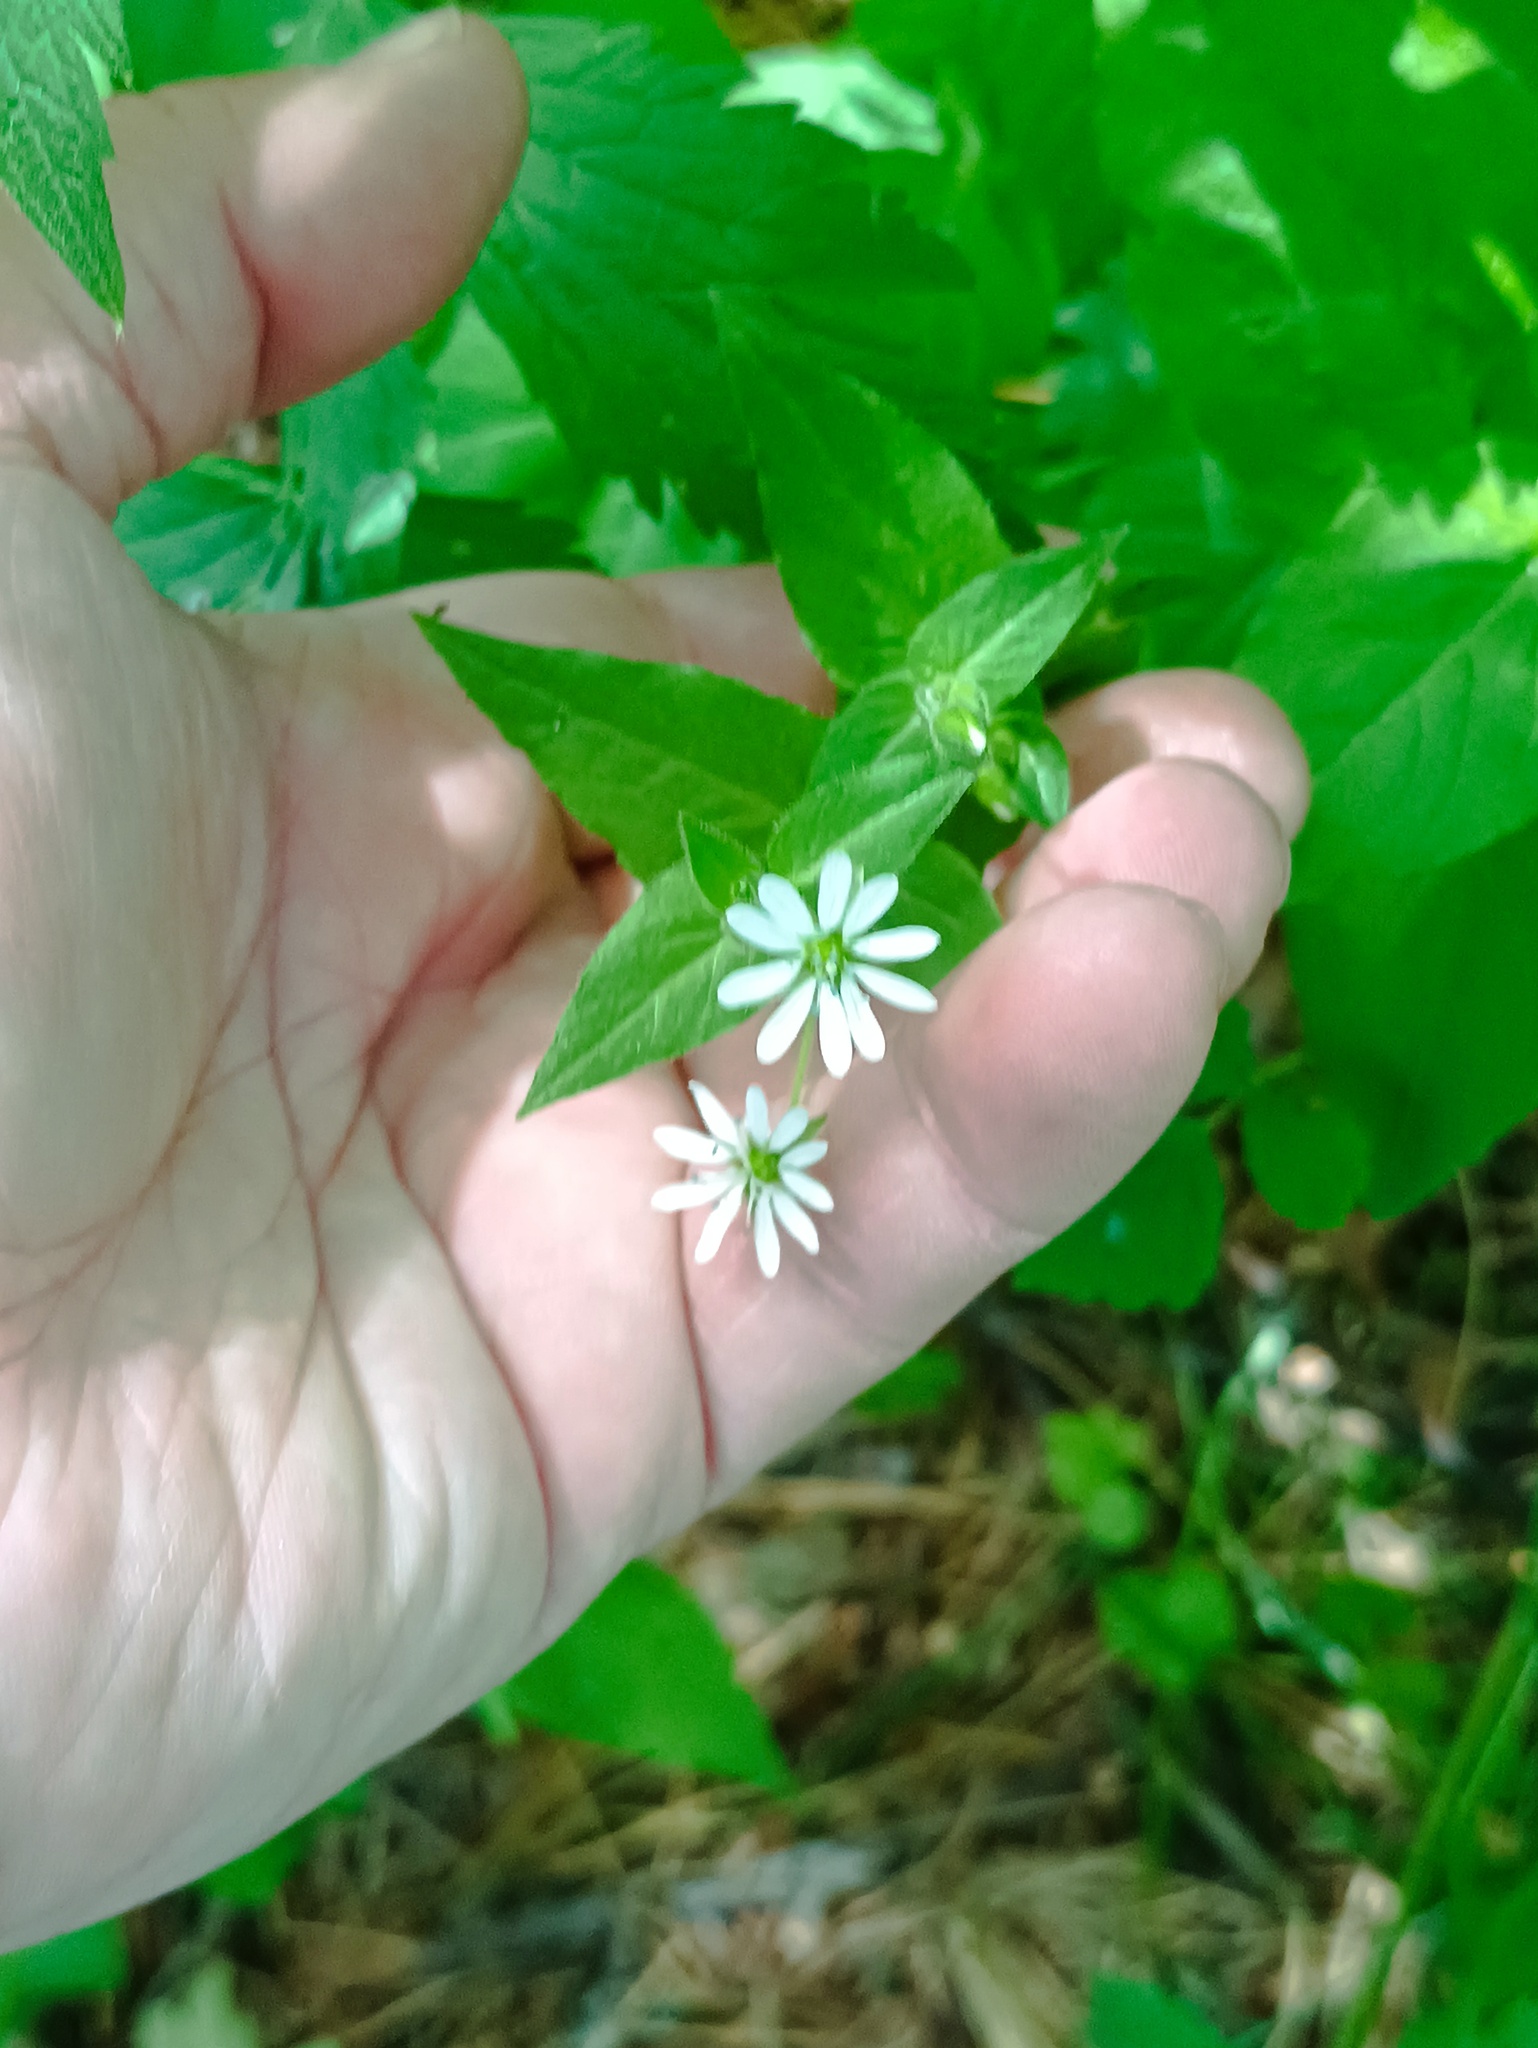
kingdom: Plantae
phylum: Tracheophyta
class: Magnoliopsida
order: Caryophyllales
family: Caryophyllaceae
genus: Stellaria
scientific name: Stellaria aquatica
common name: Water chickweed
